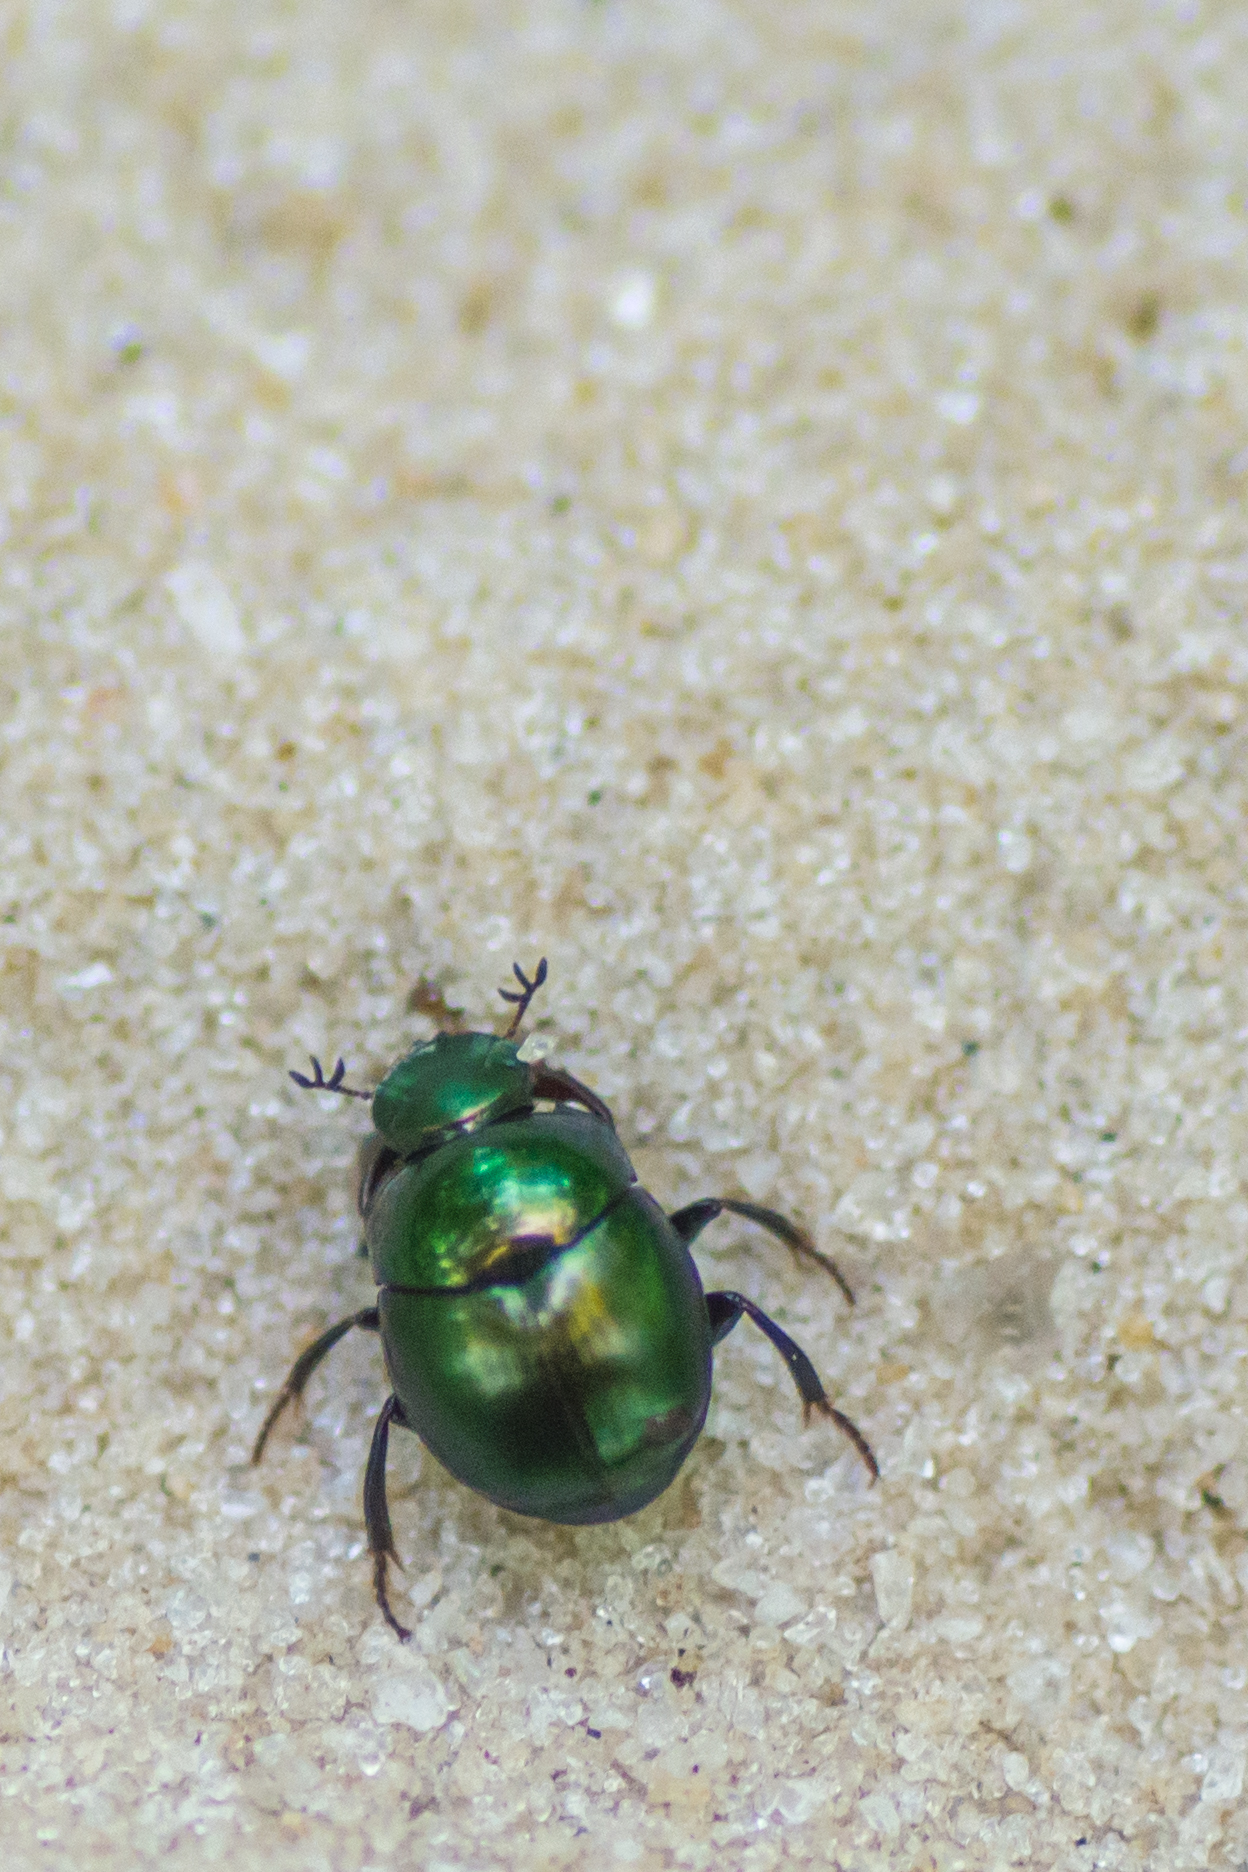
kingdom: Animalia
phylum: Arthropoda
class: Insecta
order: Coleoptera
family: Scarabaeidae
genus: Canthon
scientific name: Canthon viridis
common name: Tumblebug
